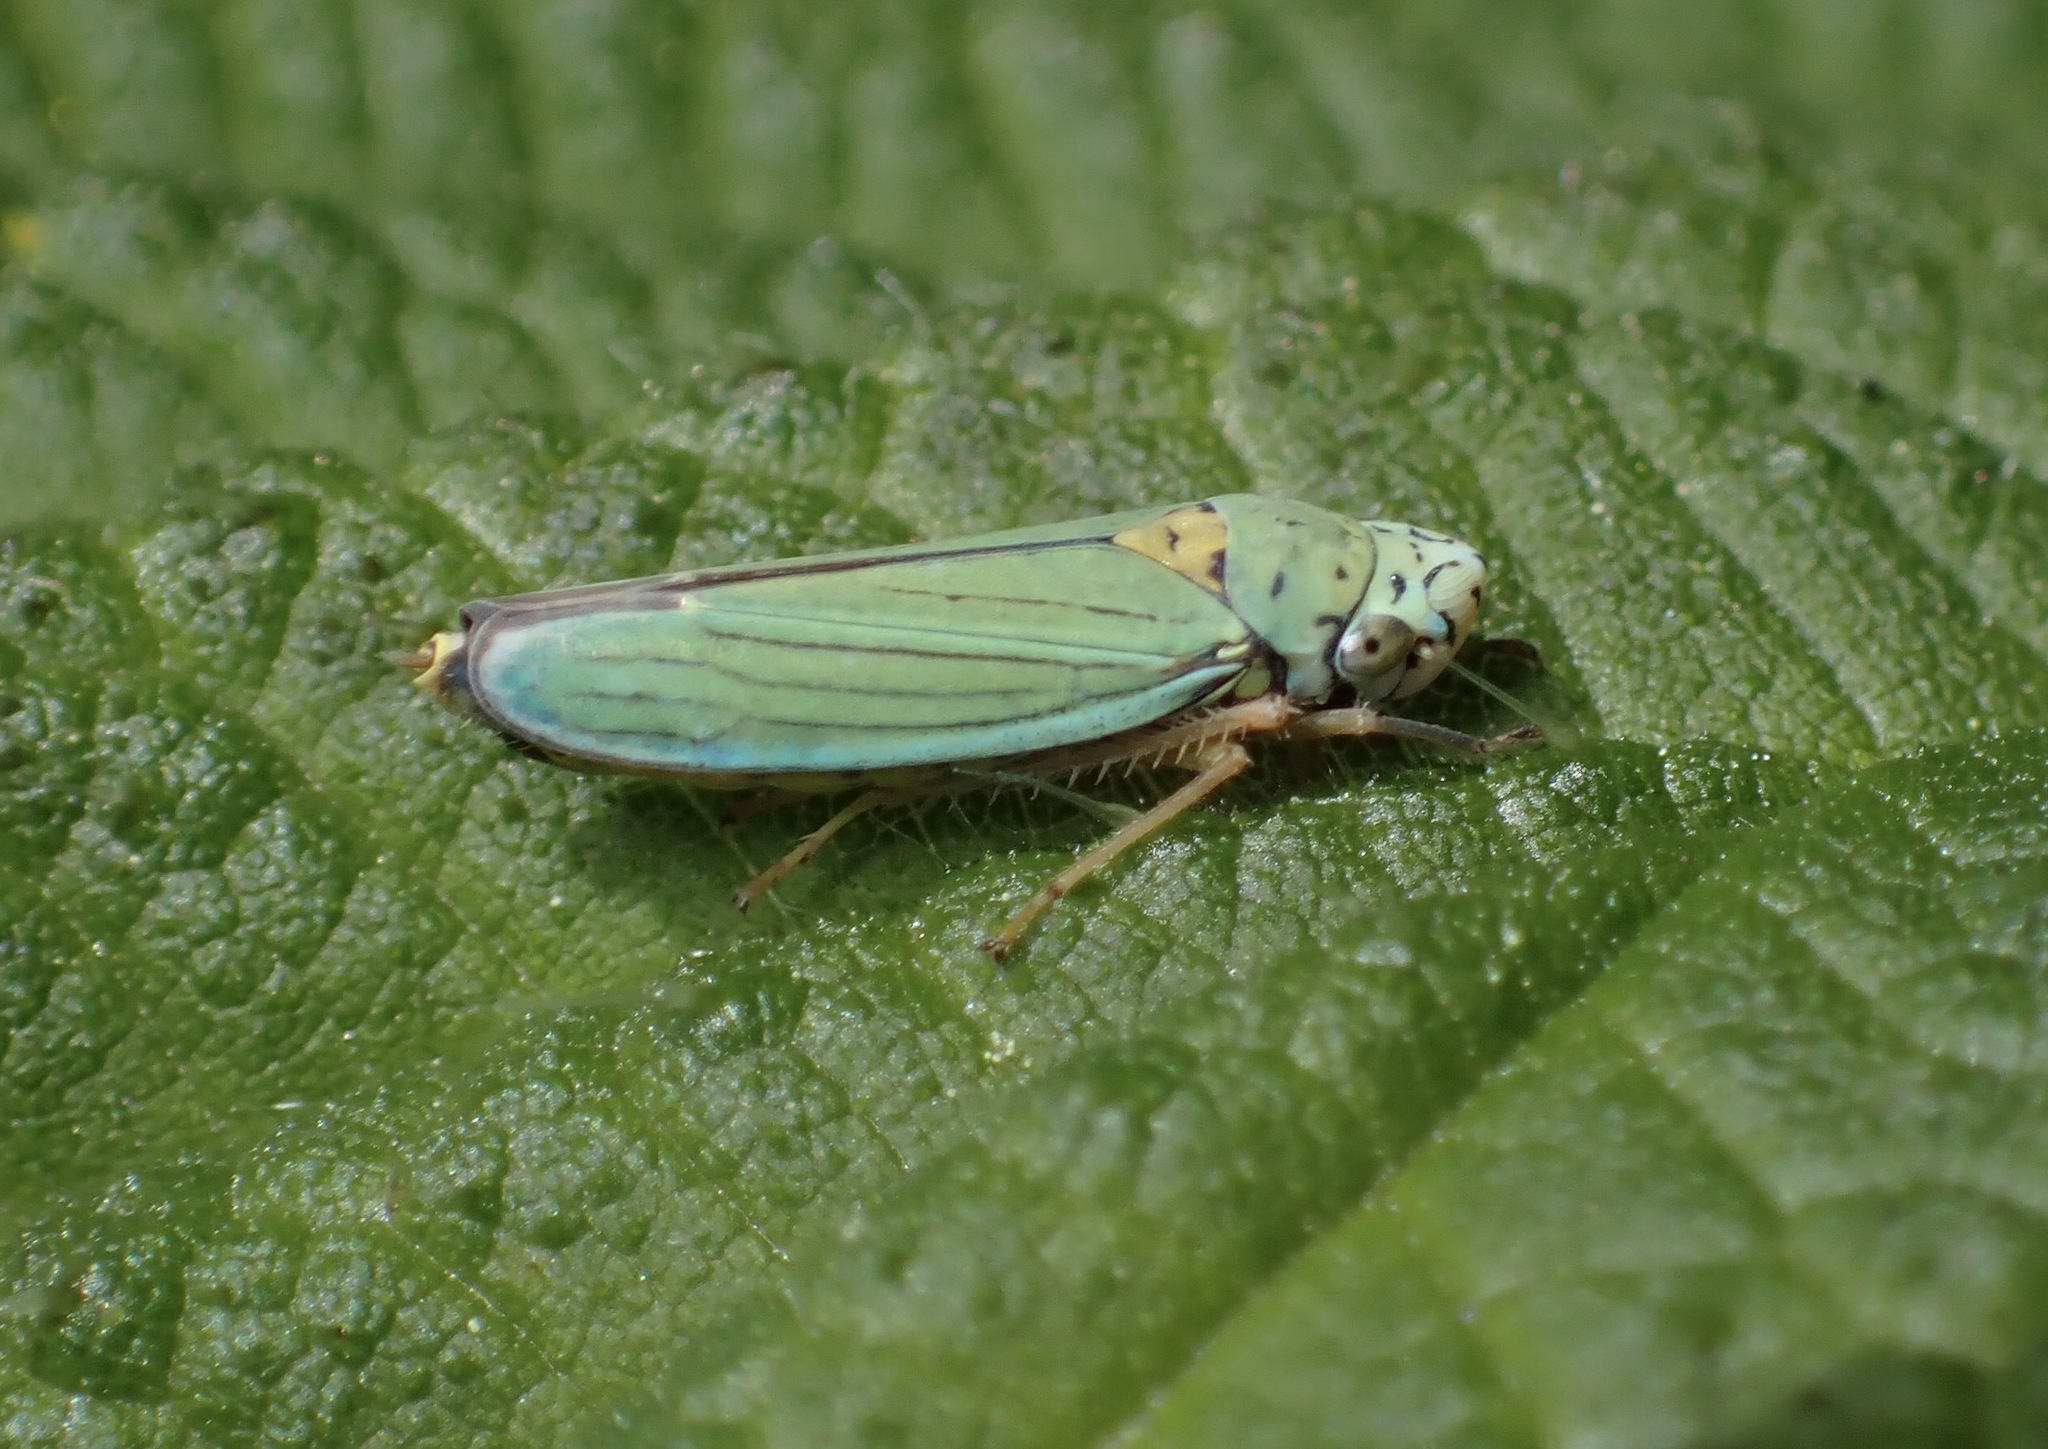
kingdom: Animalia
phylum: Arthropoda
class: Insecta
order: Hemiptera
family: Cicadellidae
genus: Graphocephala
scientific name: Graphocephala atropunctata
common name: Blue-green sharpshooter
